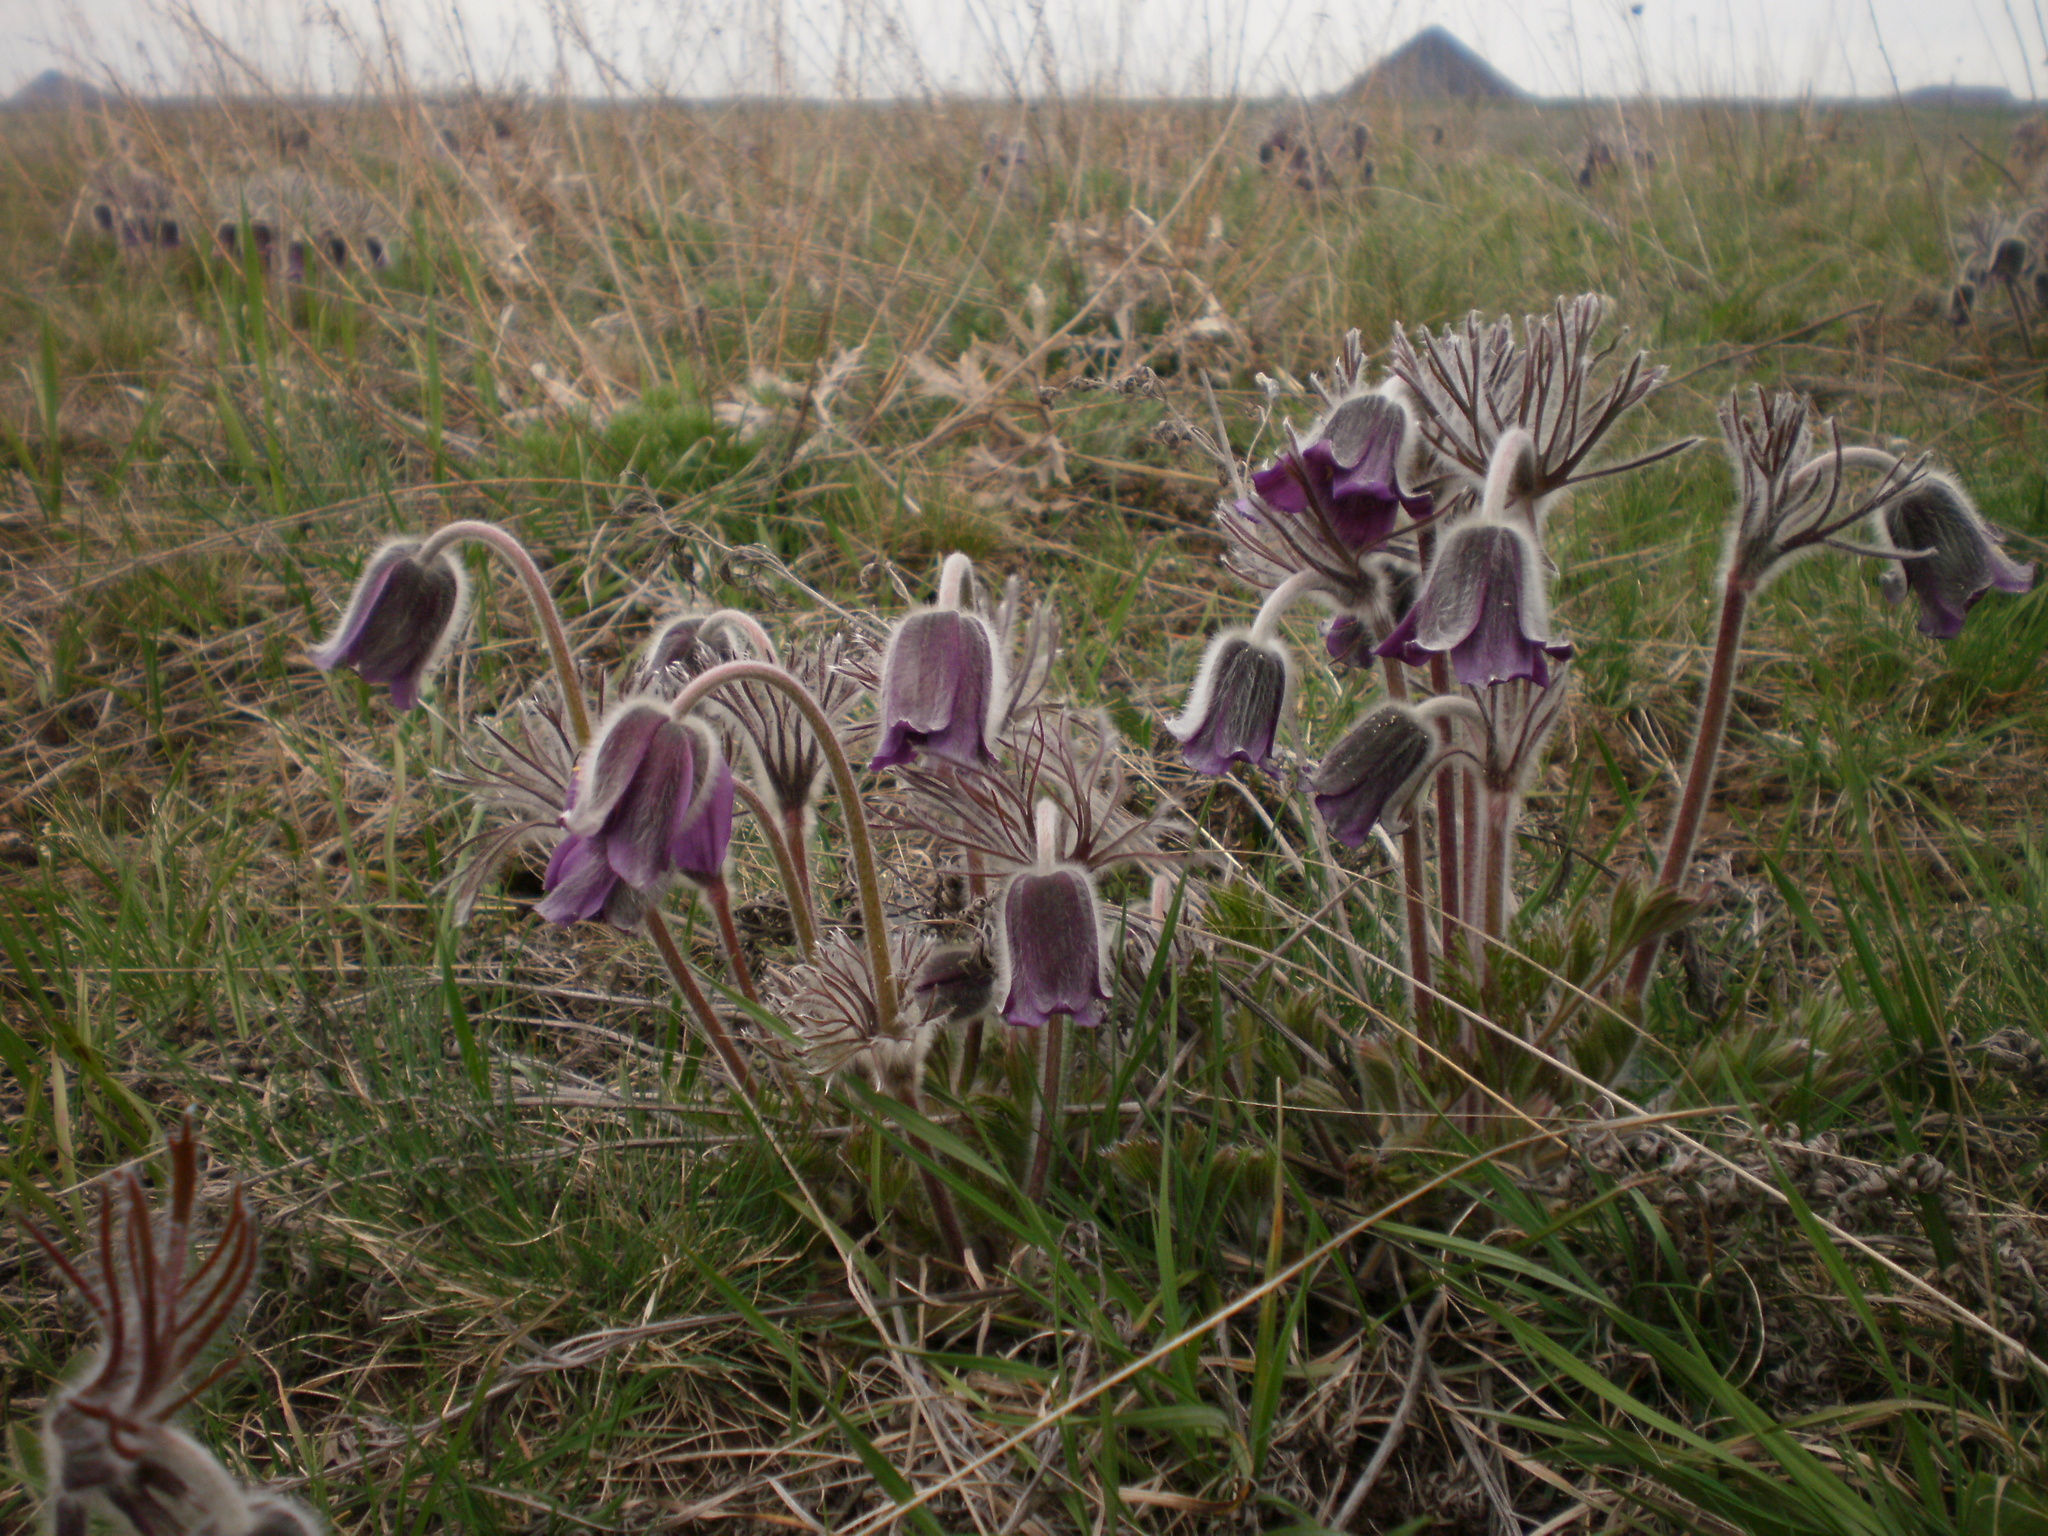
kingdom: Plantae
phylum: Tracheophyta
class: Magnoliopsida
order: Ranunculales
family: Ranunculaceae
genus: Pulsatilla
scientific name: Pulsatilla pratensis
